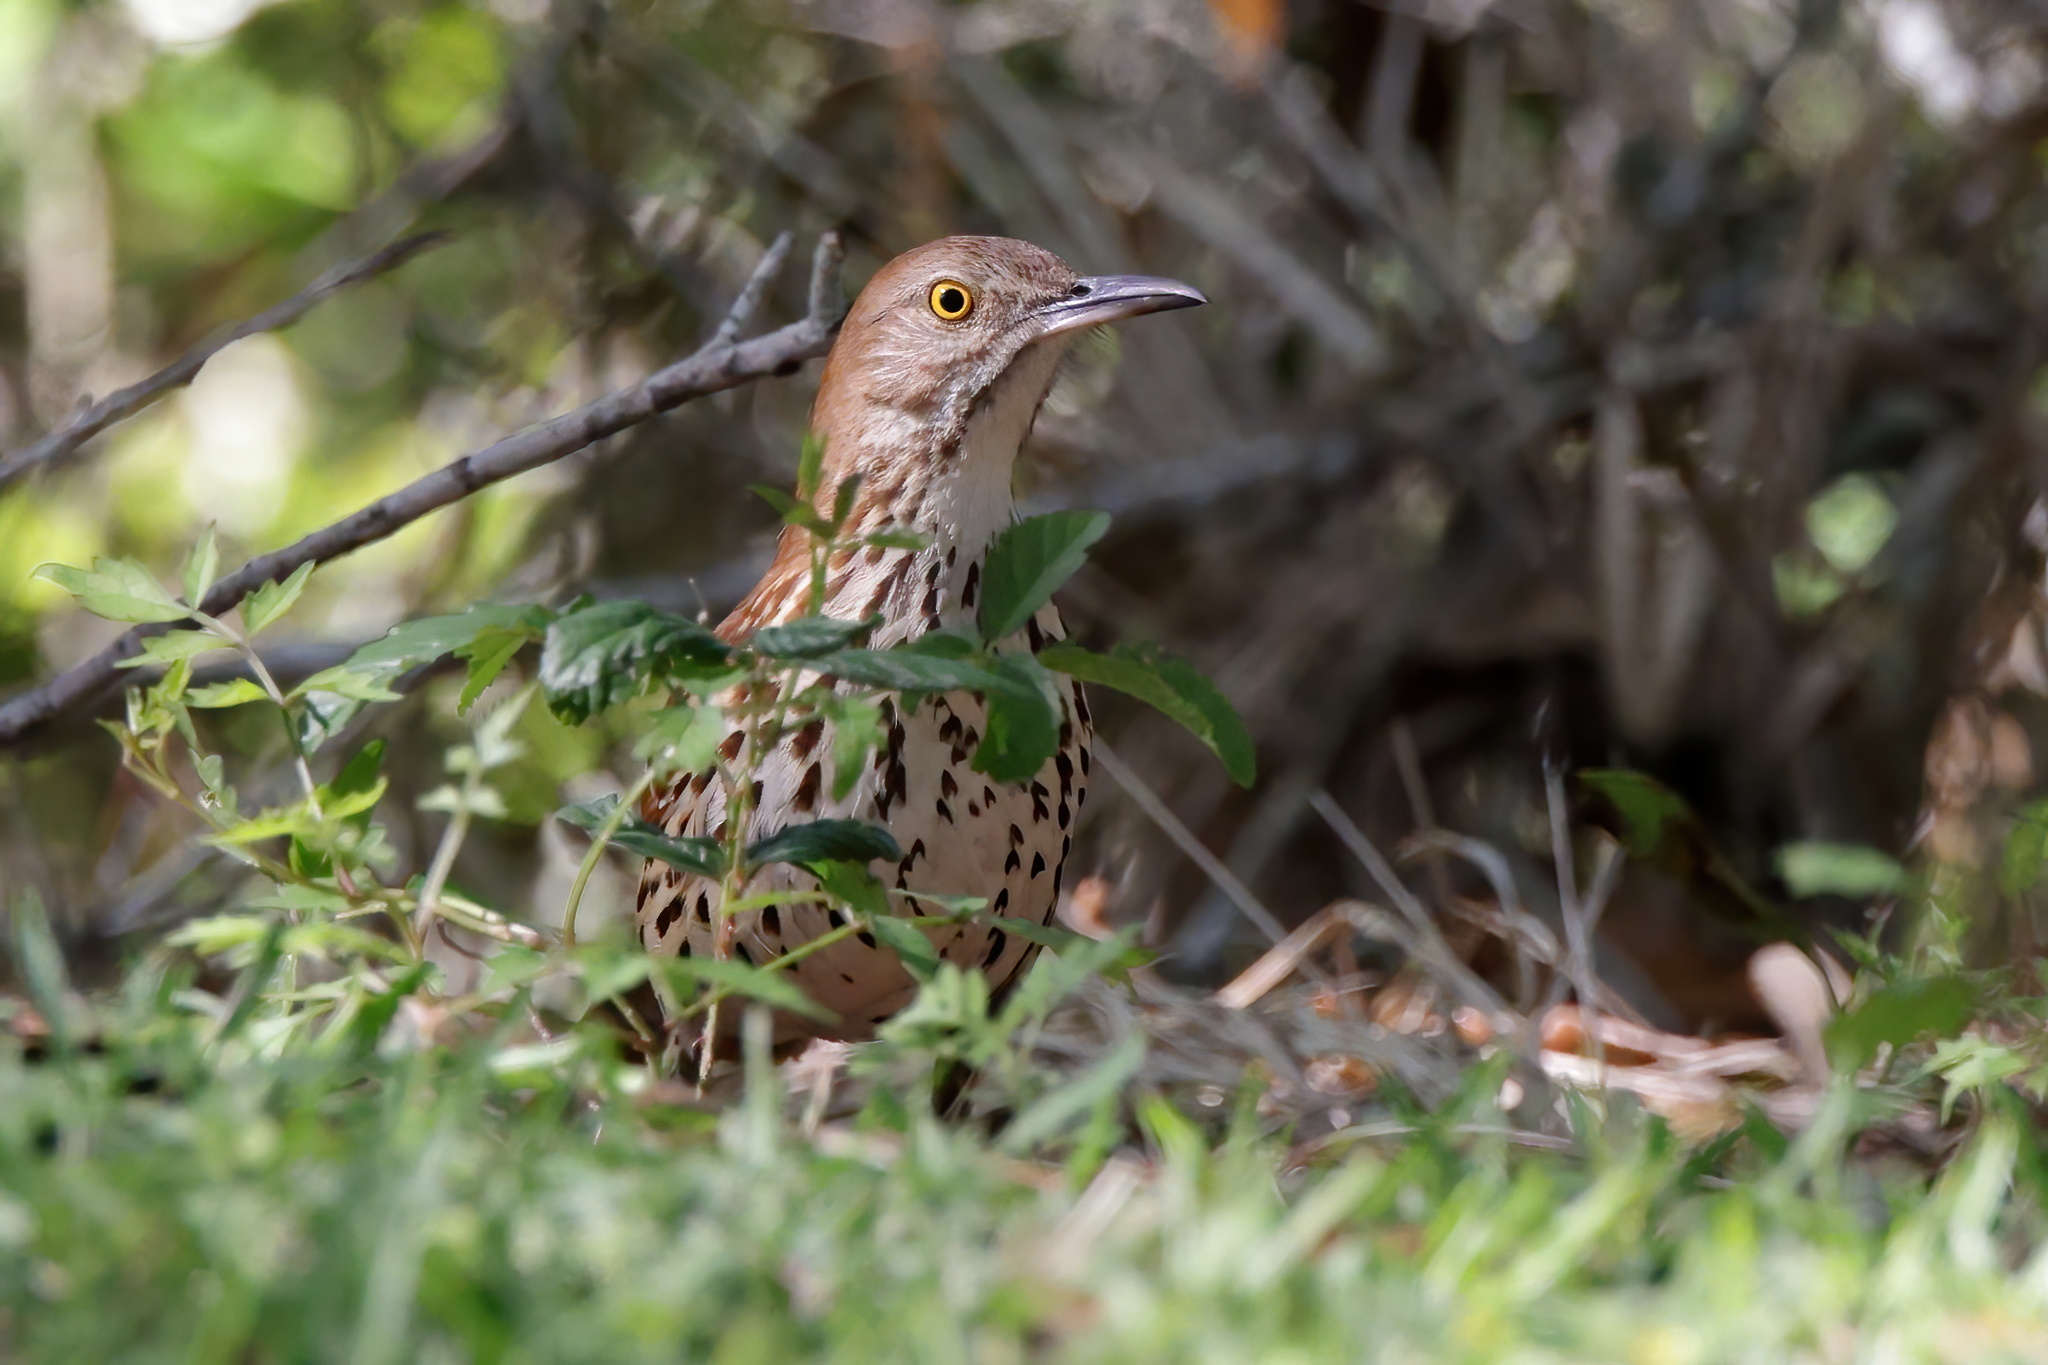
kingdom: Animalia
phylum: Chordata
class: Aves
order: Passeriformes
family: Mimidae
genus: Toxostoma
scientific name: Toxostoma rufum
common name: Brown thrasher
